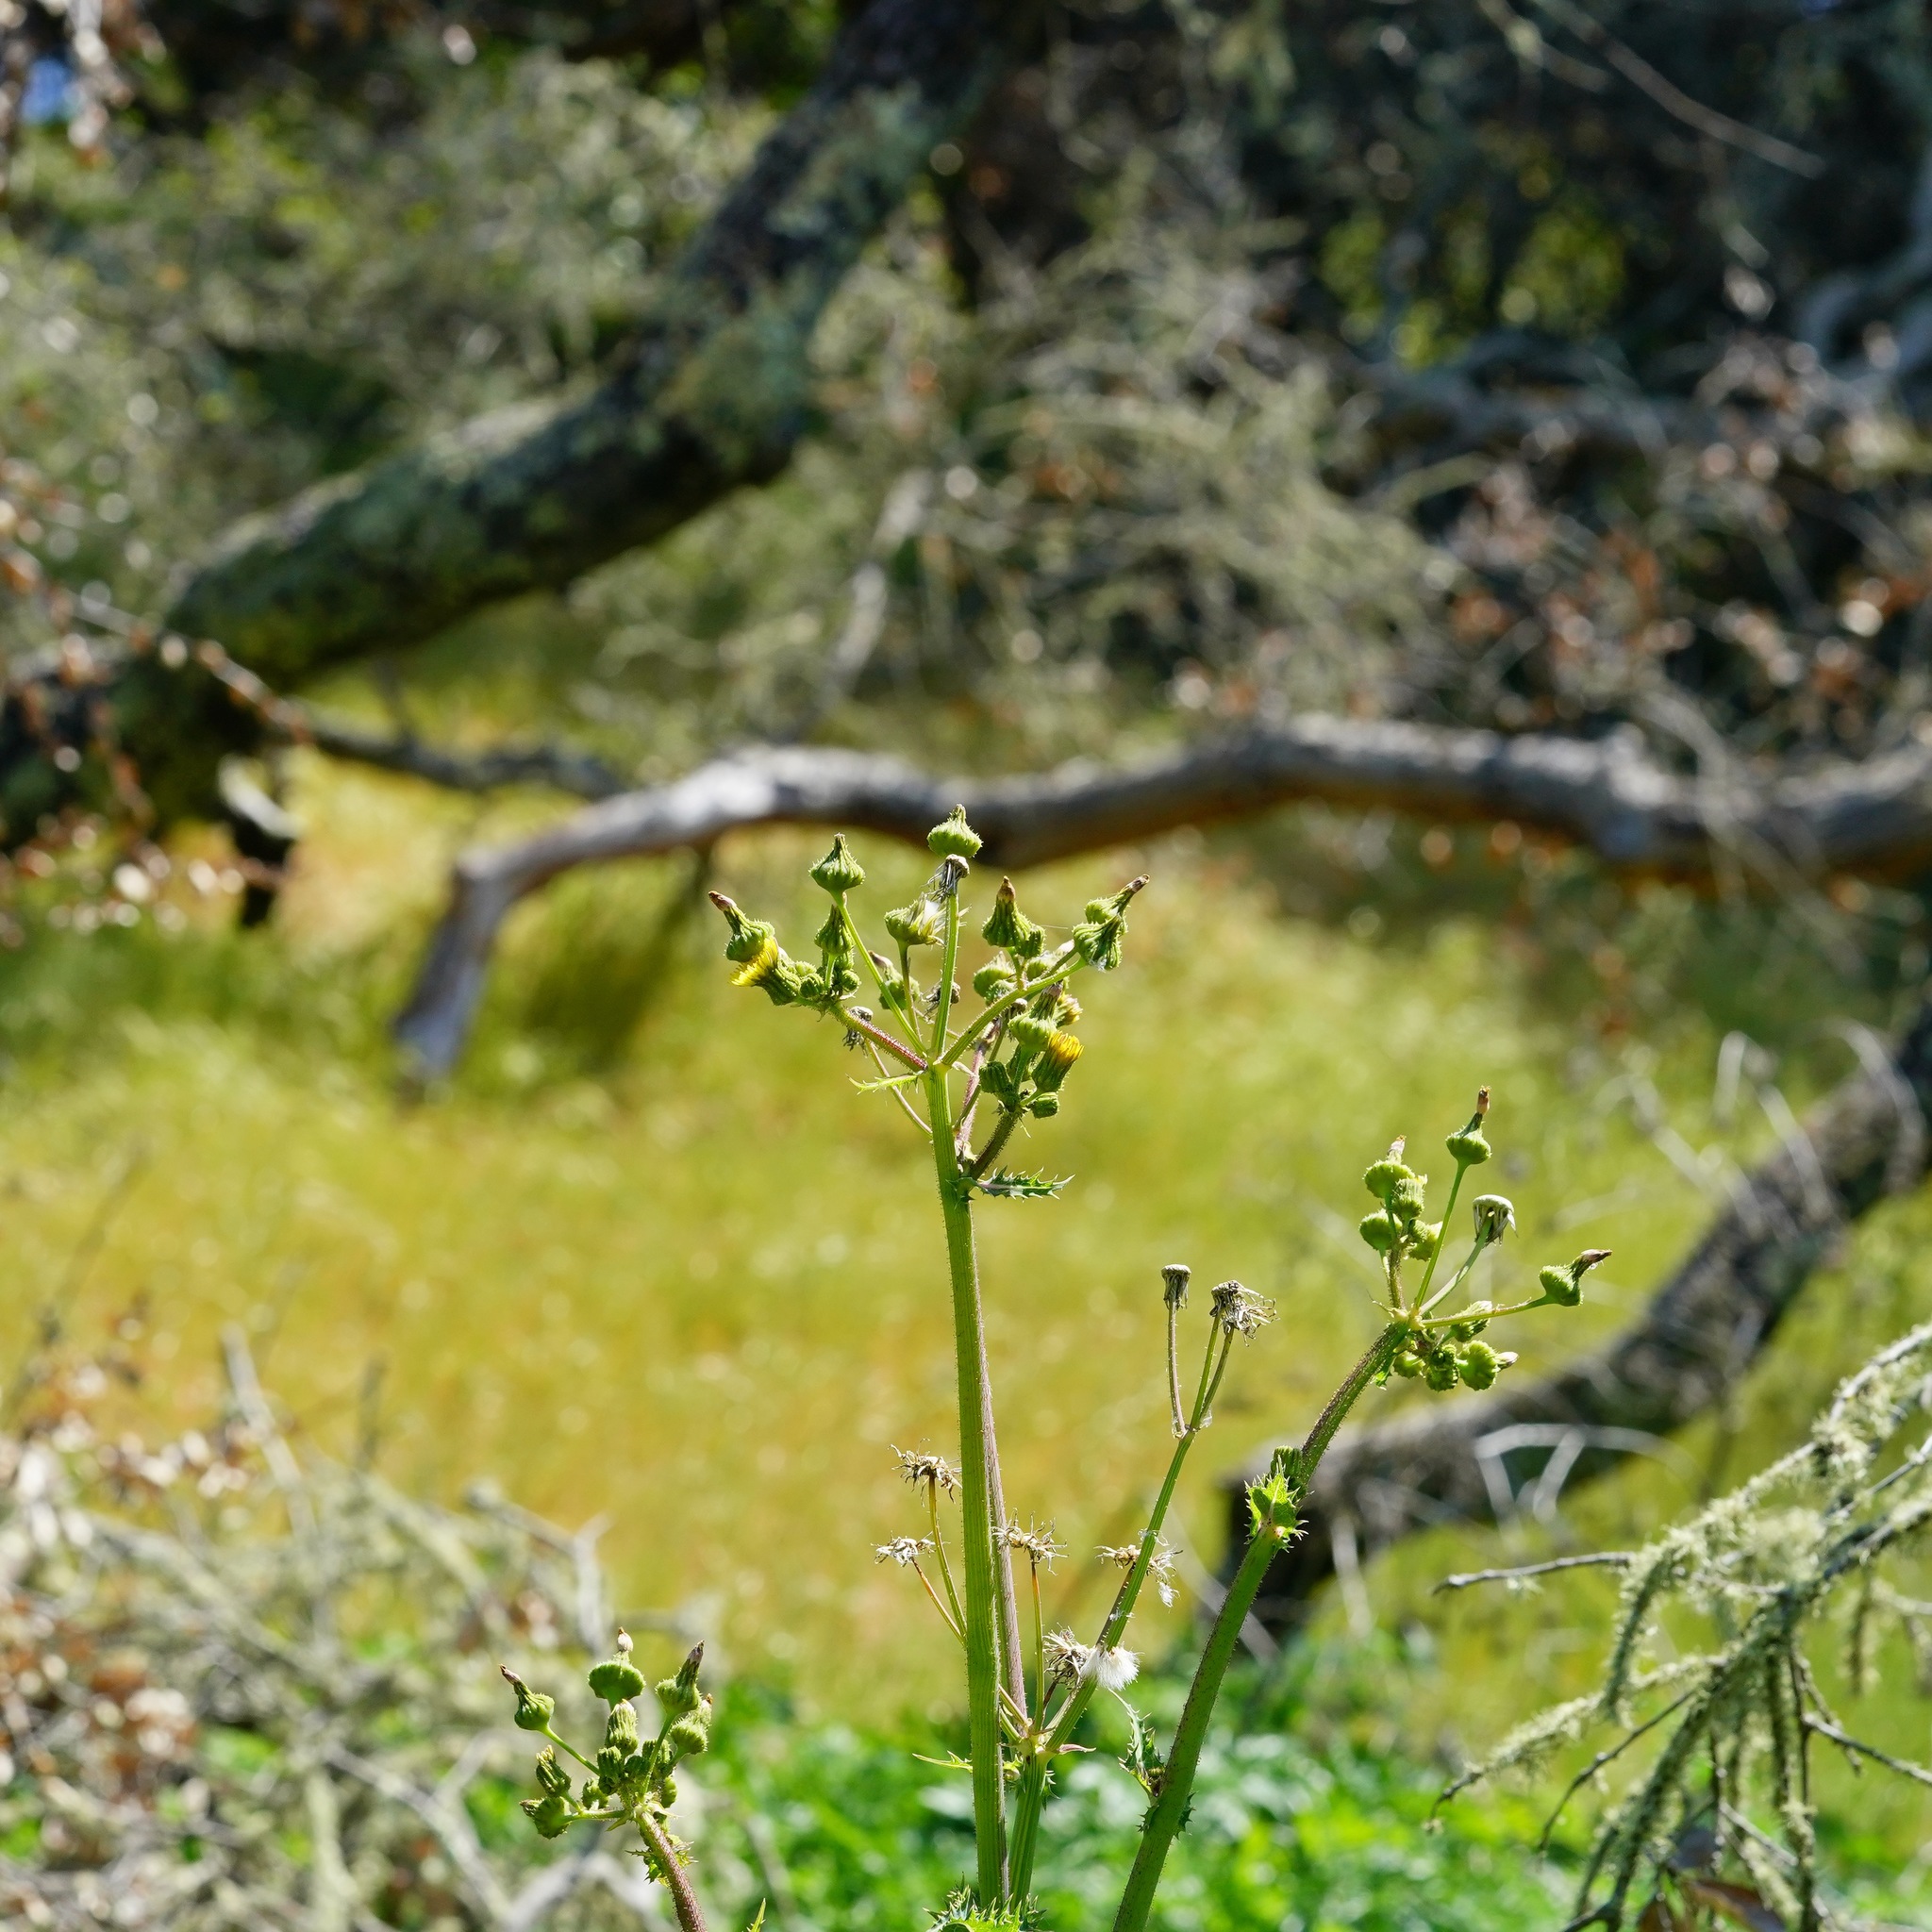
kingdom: Plantae
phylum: Tracheophyta
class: Magnoliopsida
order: Asterales
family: Asteraceae
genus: Sonchus
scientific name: Sonchus asper
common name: Prickly sow-thistle
